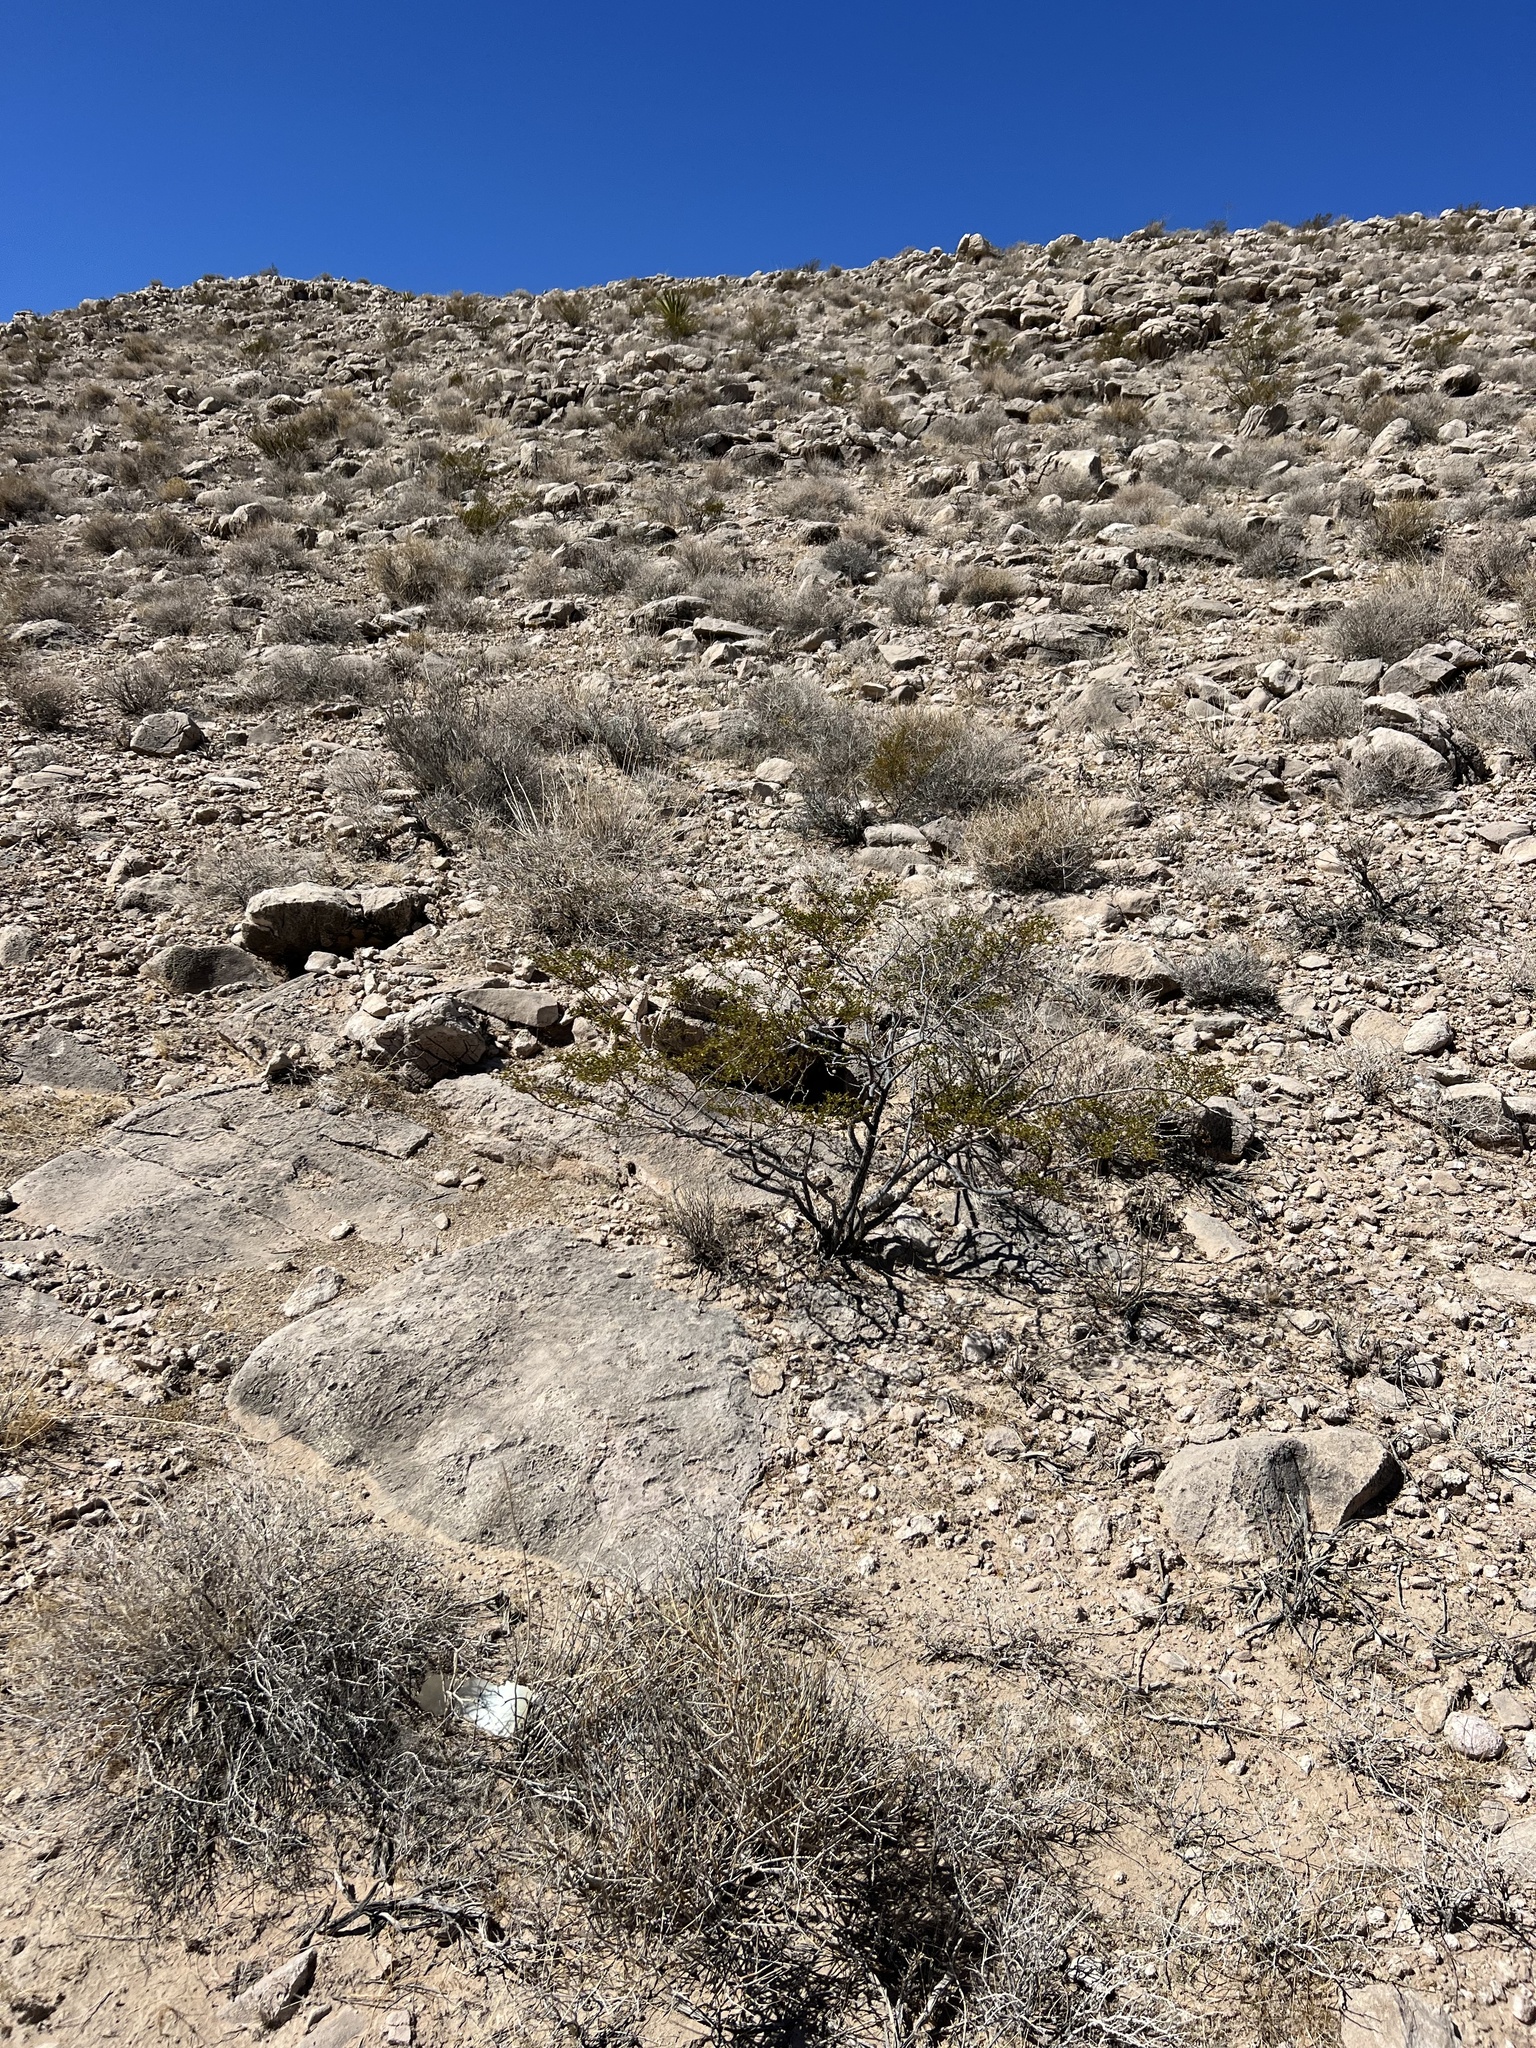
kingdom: Plantae
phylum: Tracheophyta
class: Magnoliopsida
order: Zygophyllales
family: Zygophyllaceae
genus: Larrea
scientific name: Larrea tridentata
